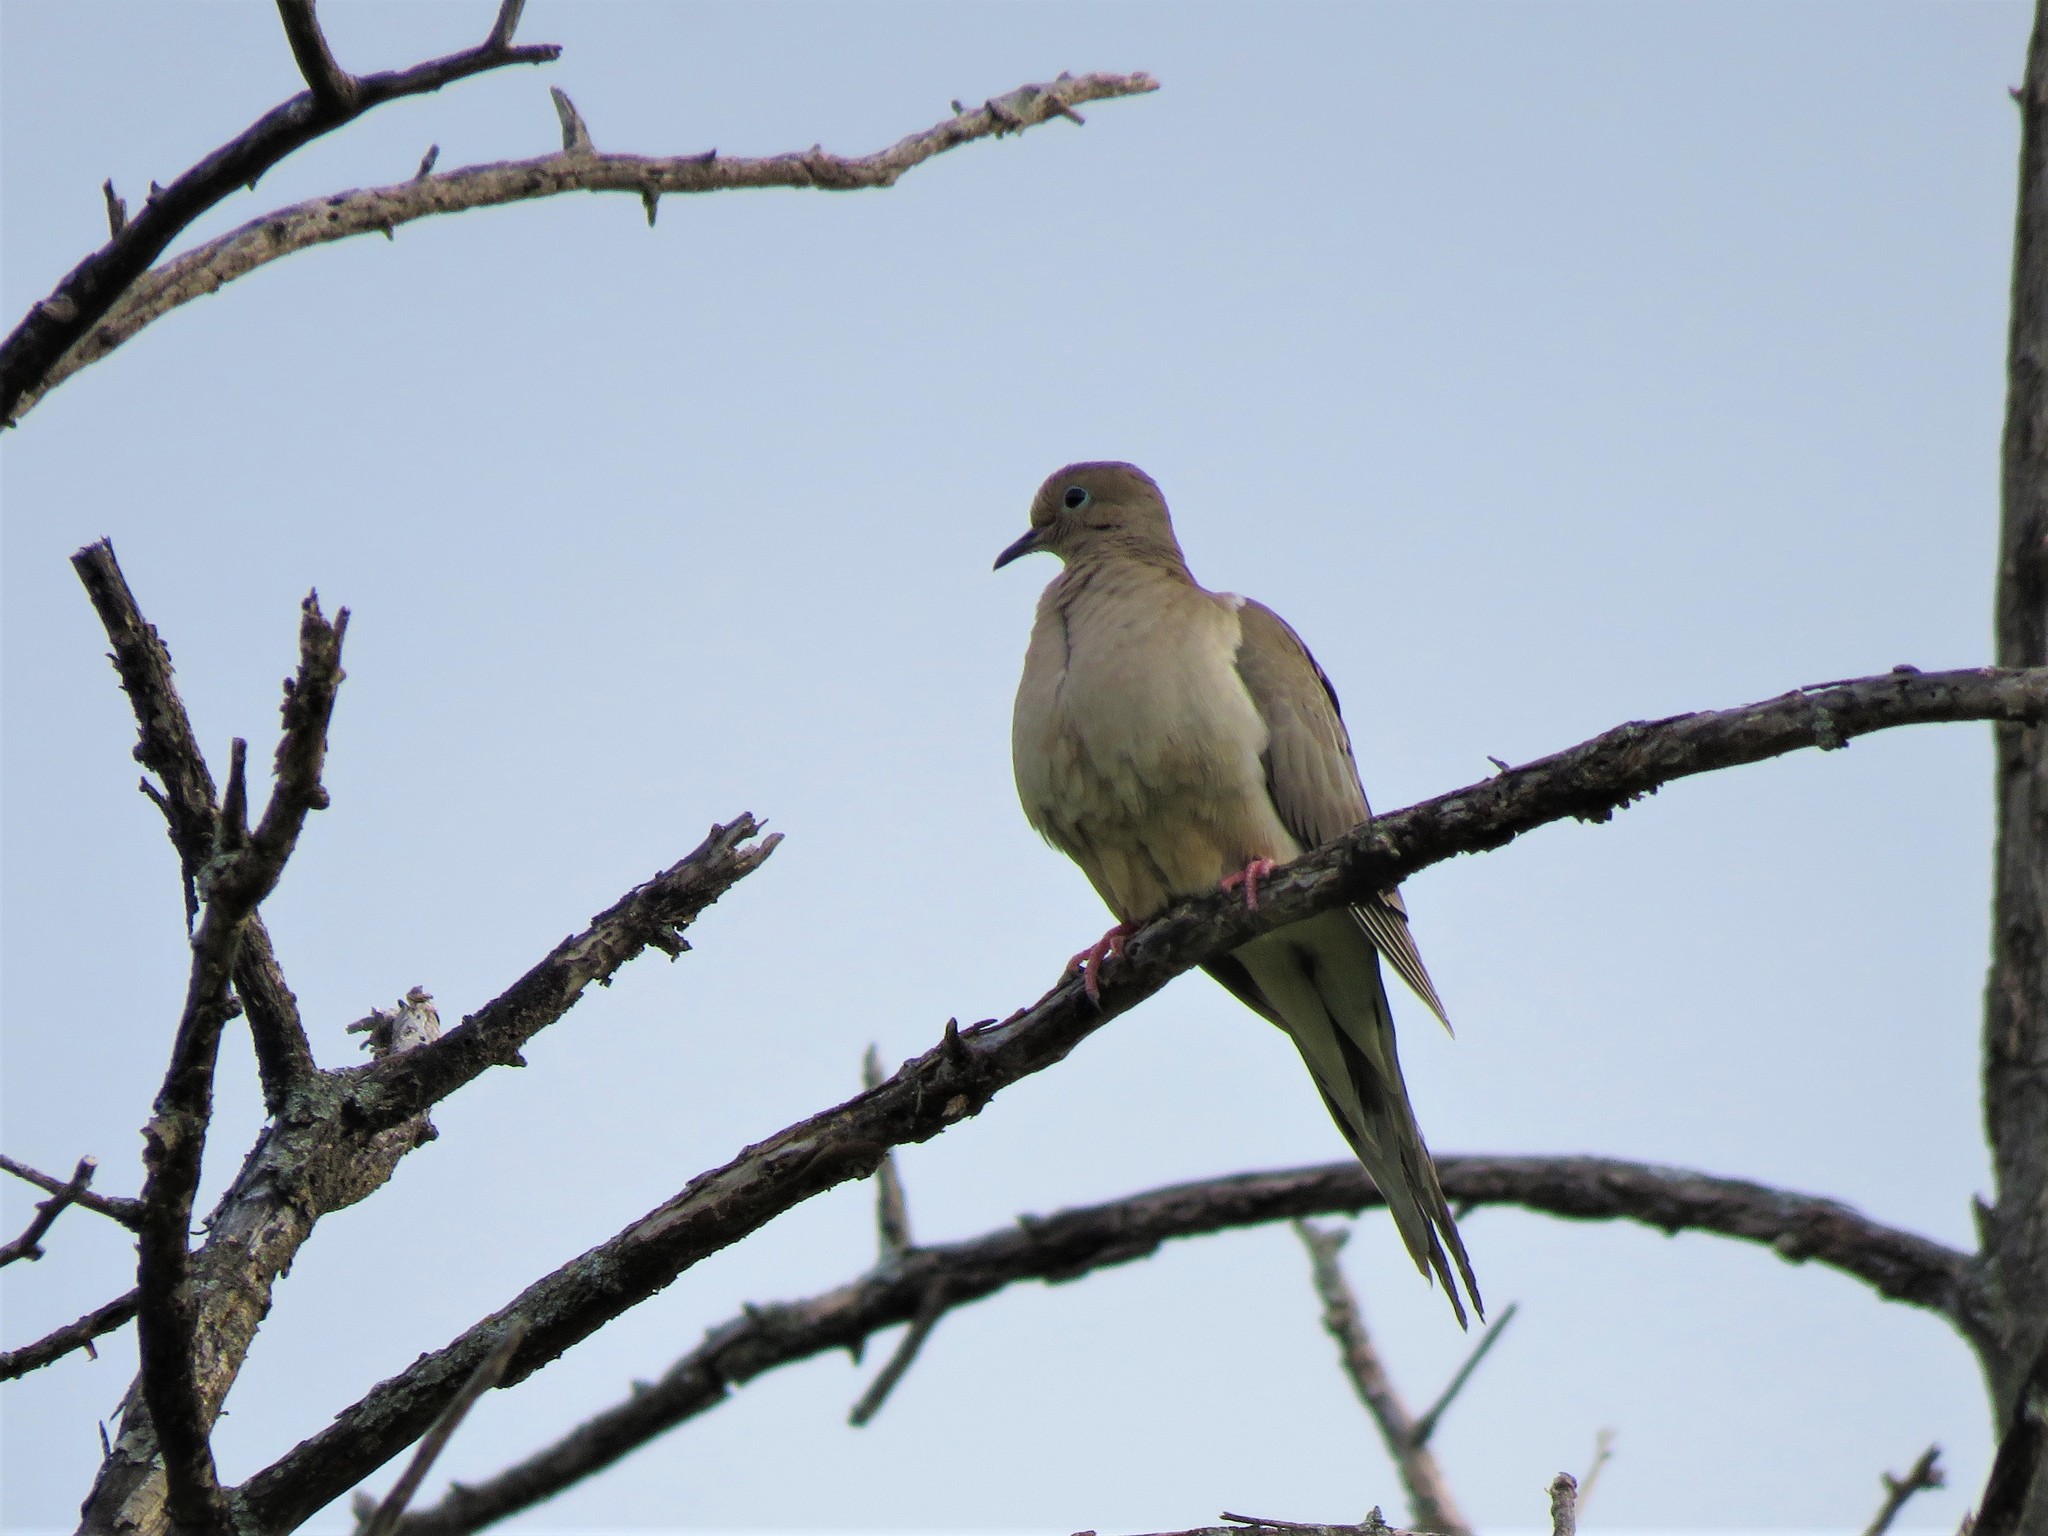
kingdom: Animalia
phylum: Chordata
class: Aves
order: Columbiformes
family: Columbidae
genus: Zenaida
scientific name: Zenaida macroura
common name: Mourning dove
